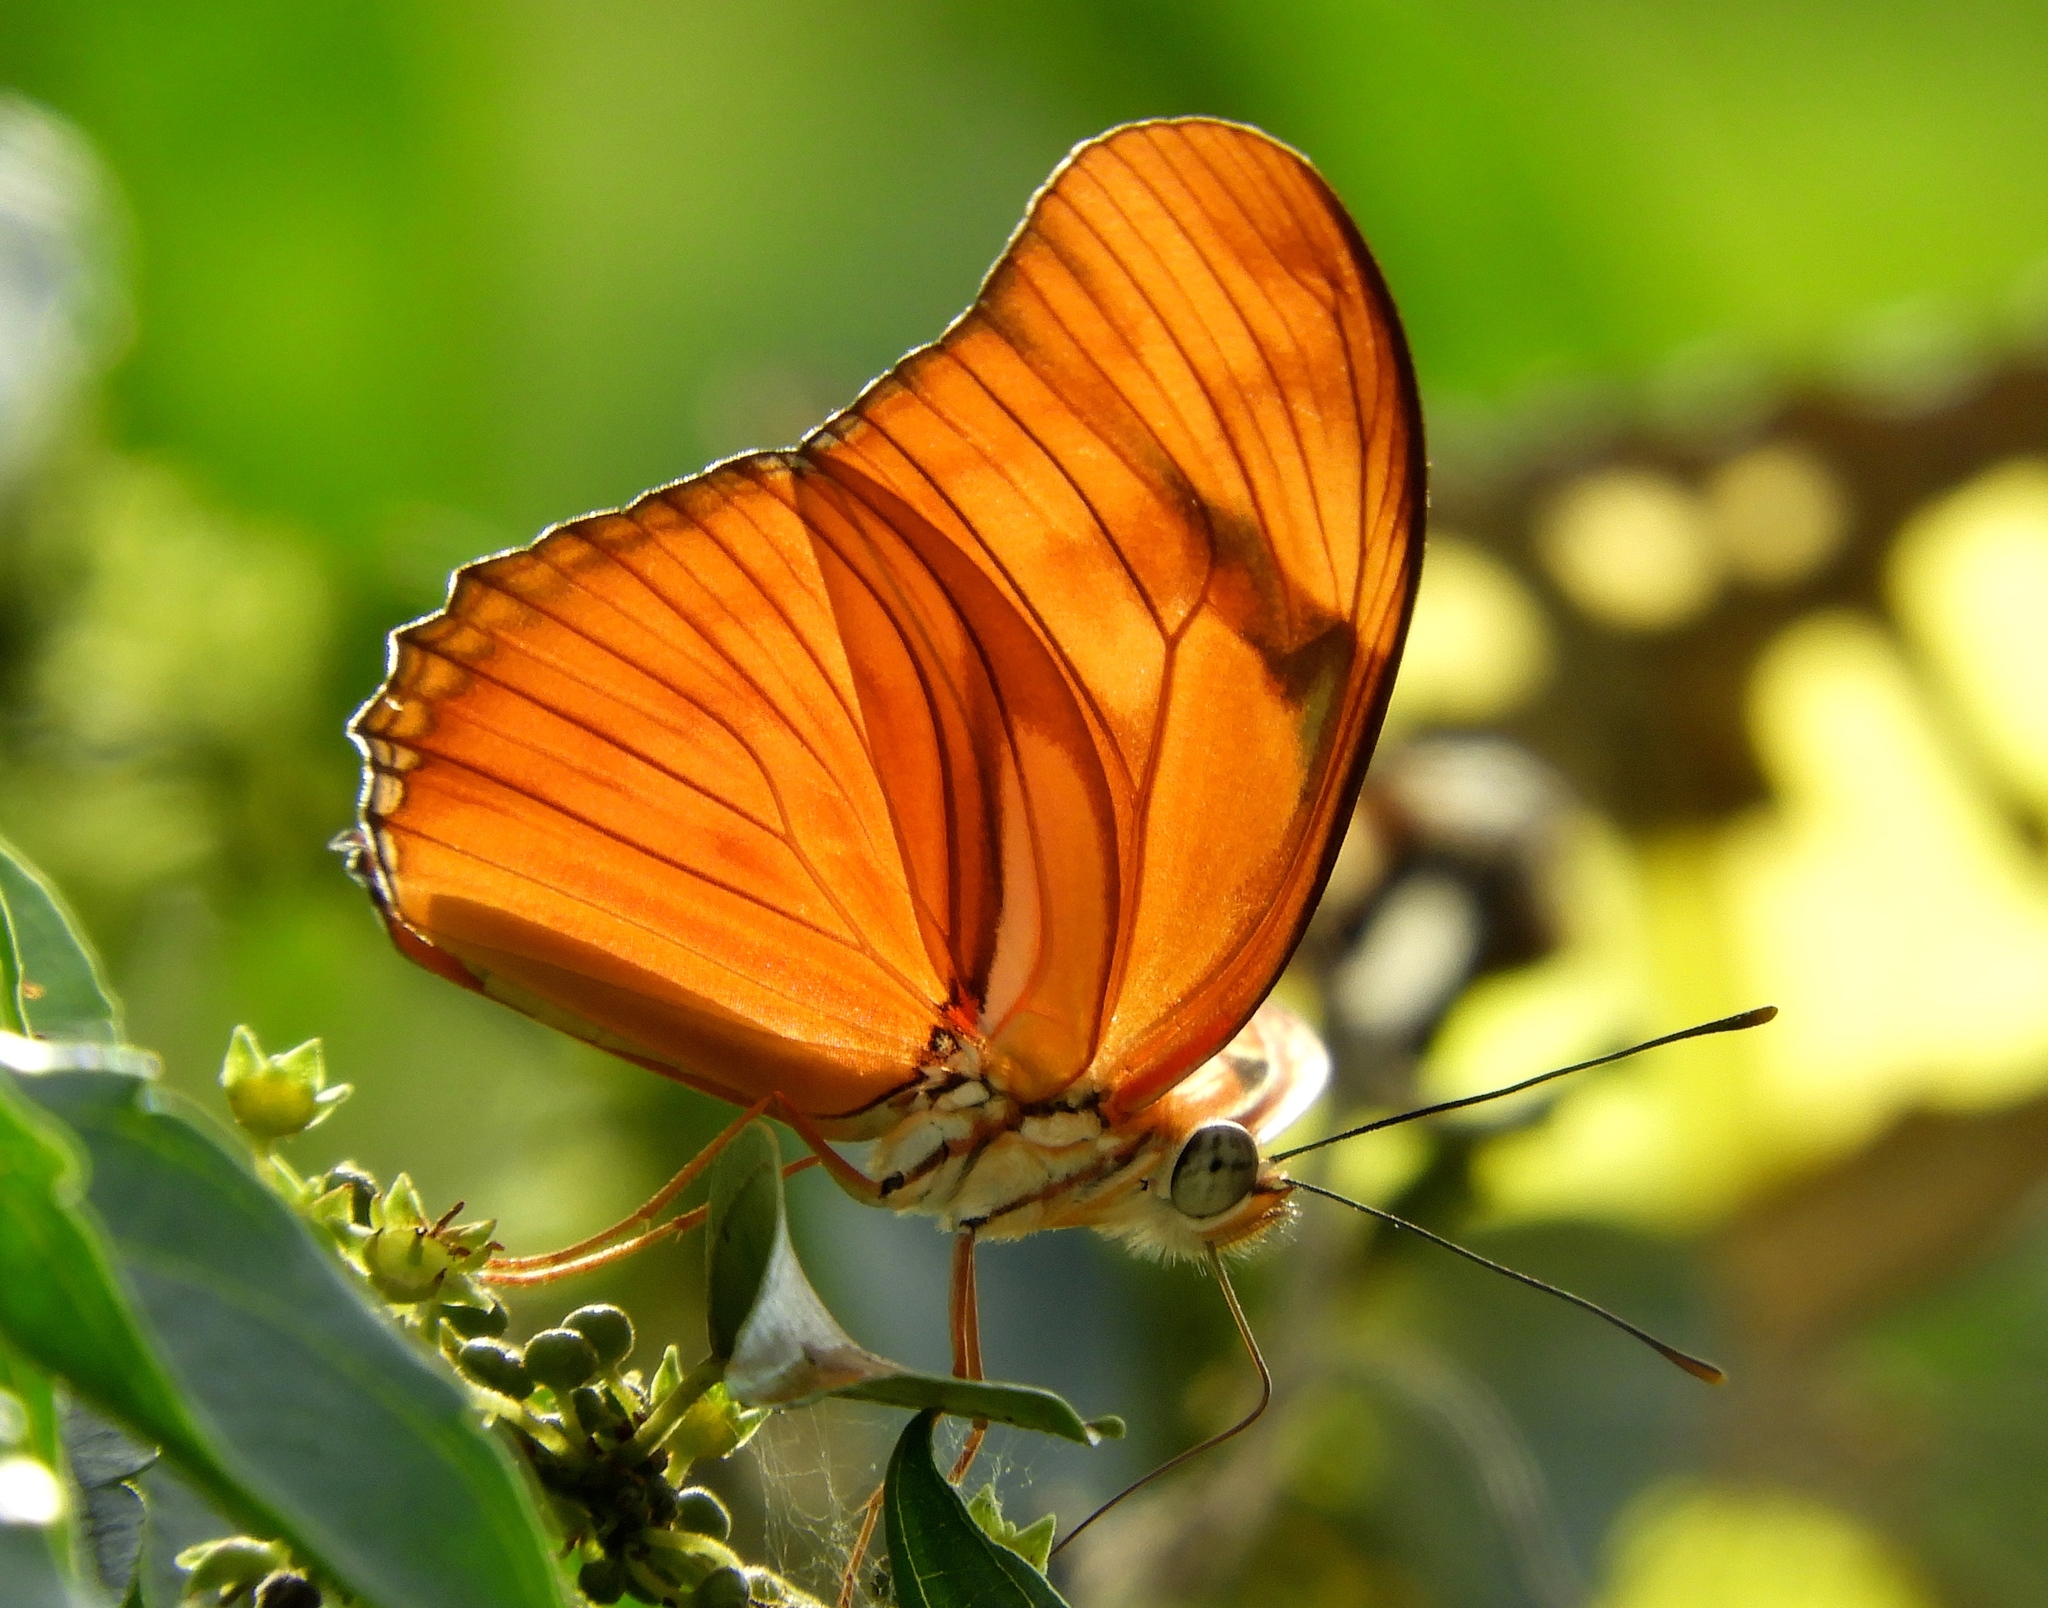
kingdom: Animalia
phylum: Arthropoda
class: Insecta
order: Lepidoptera
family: Nymphalidae
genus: Dryas
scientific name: Dryas iulia
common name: Flambeau
